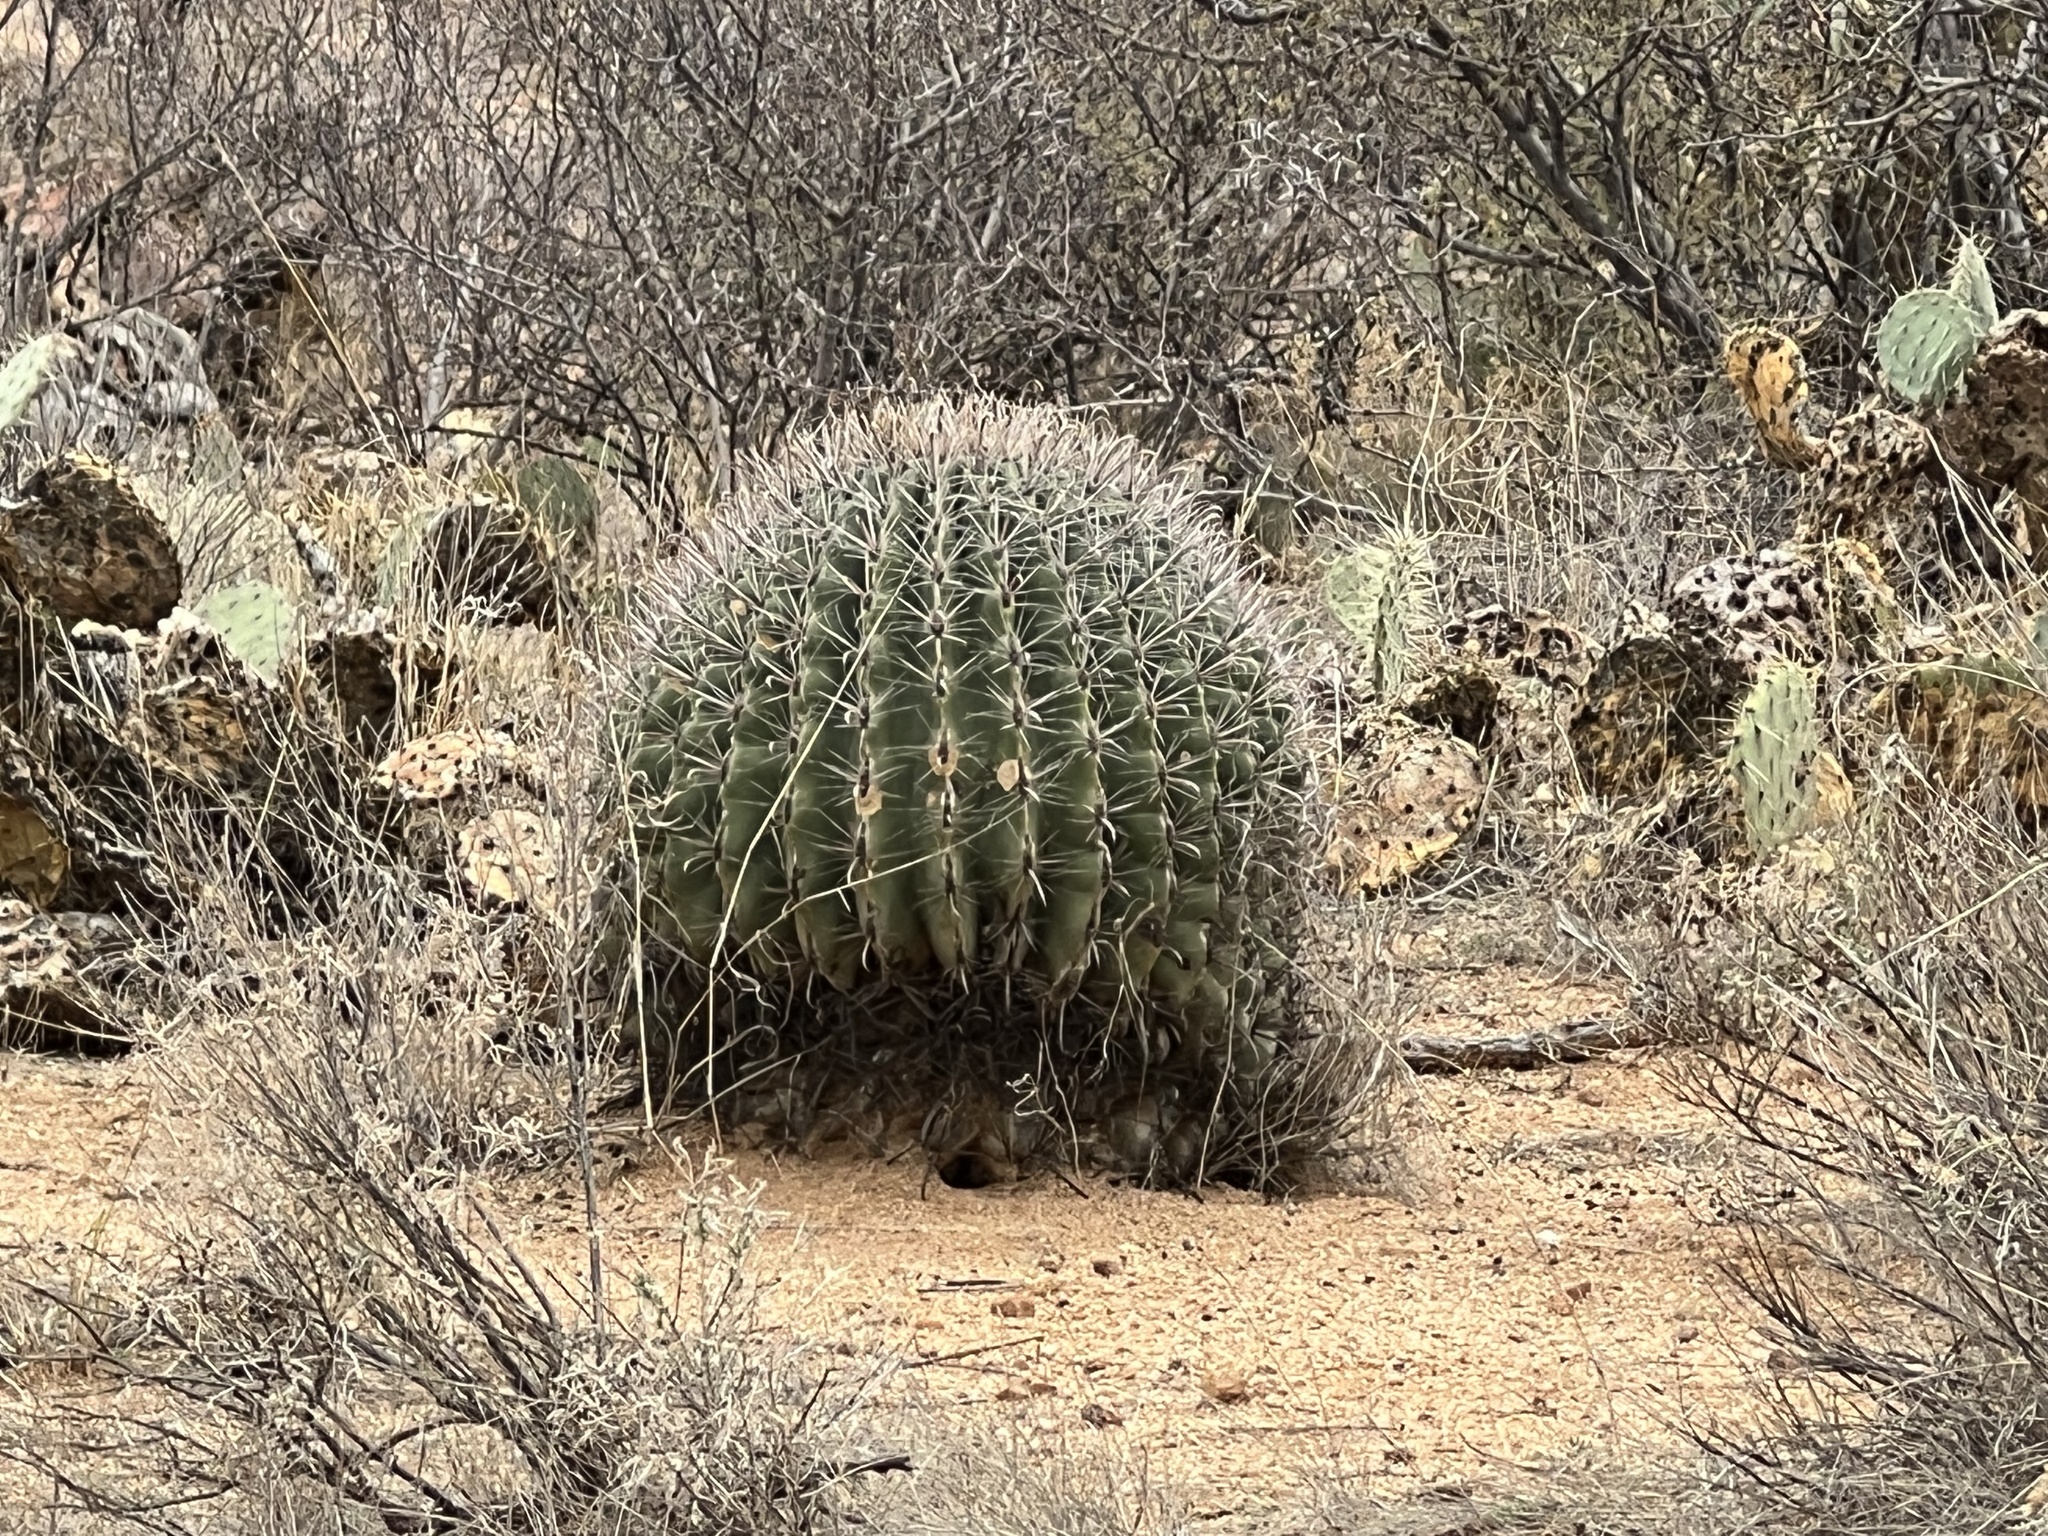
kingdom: Plantae
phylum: Tracheophyta
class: Magnoliopsida
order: Caryophyllales
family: Cactaceae
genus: Ferocactus
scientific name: Ferocactus wislizeni
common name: Candy barrel cactus
